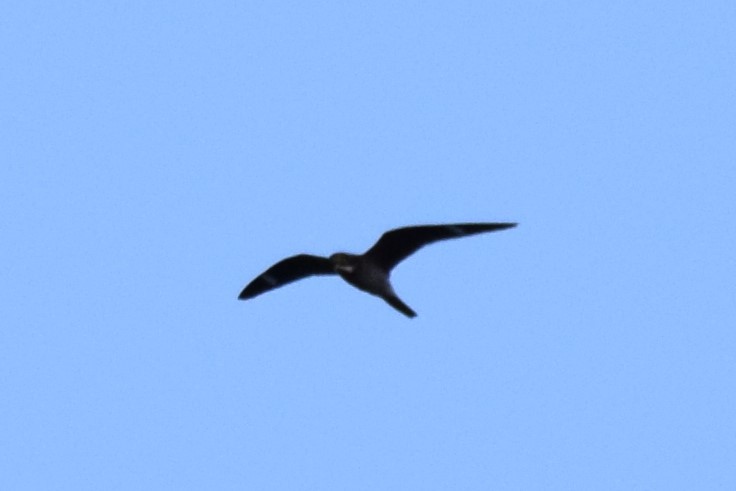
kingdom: Animalia
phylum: Chordata
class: Aves
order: Caprimulgiformes
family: Caprimulgidae
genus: Chordeiles
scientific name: Chordeiles minor
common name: Common nighthawk
